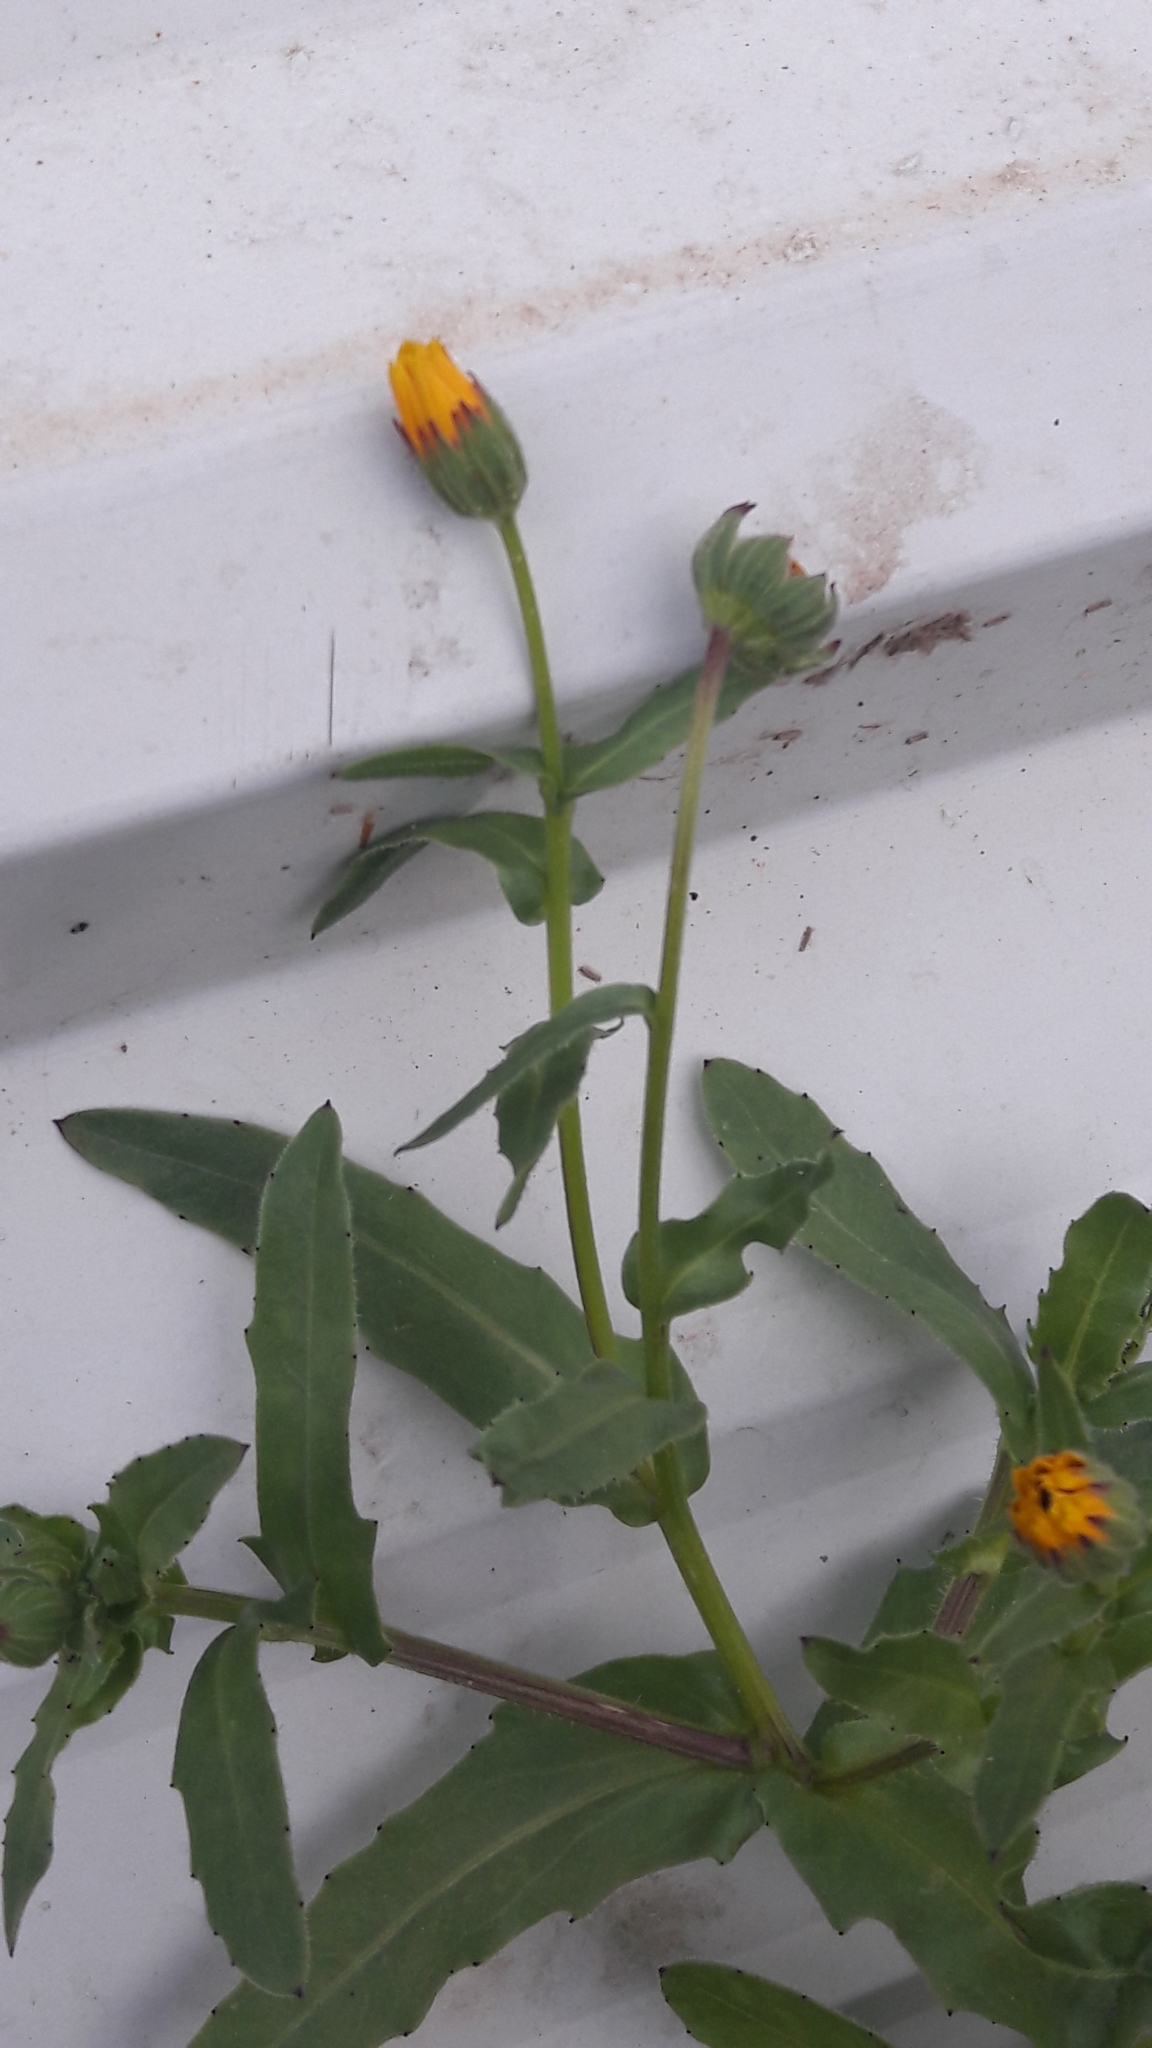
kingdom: Plantae
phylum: Tracheophyta
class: Magnoliopsida
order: Asterales
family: Asteraceae
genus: Calendula
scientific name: Calendula arvensis
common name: Field marigold
